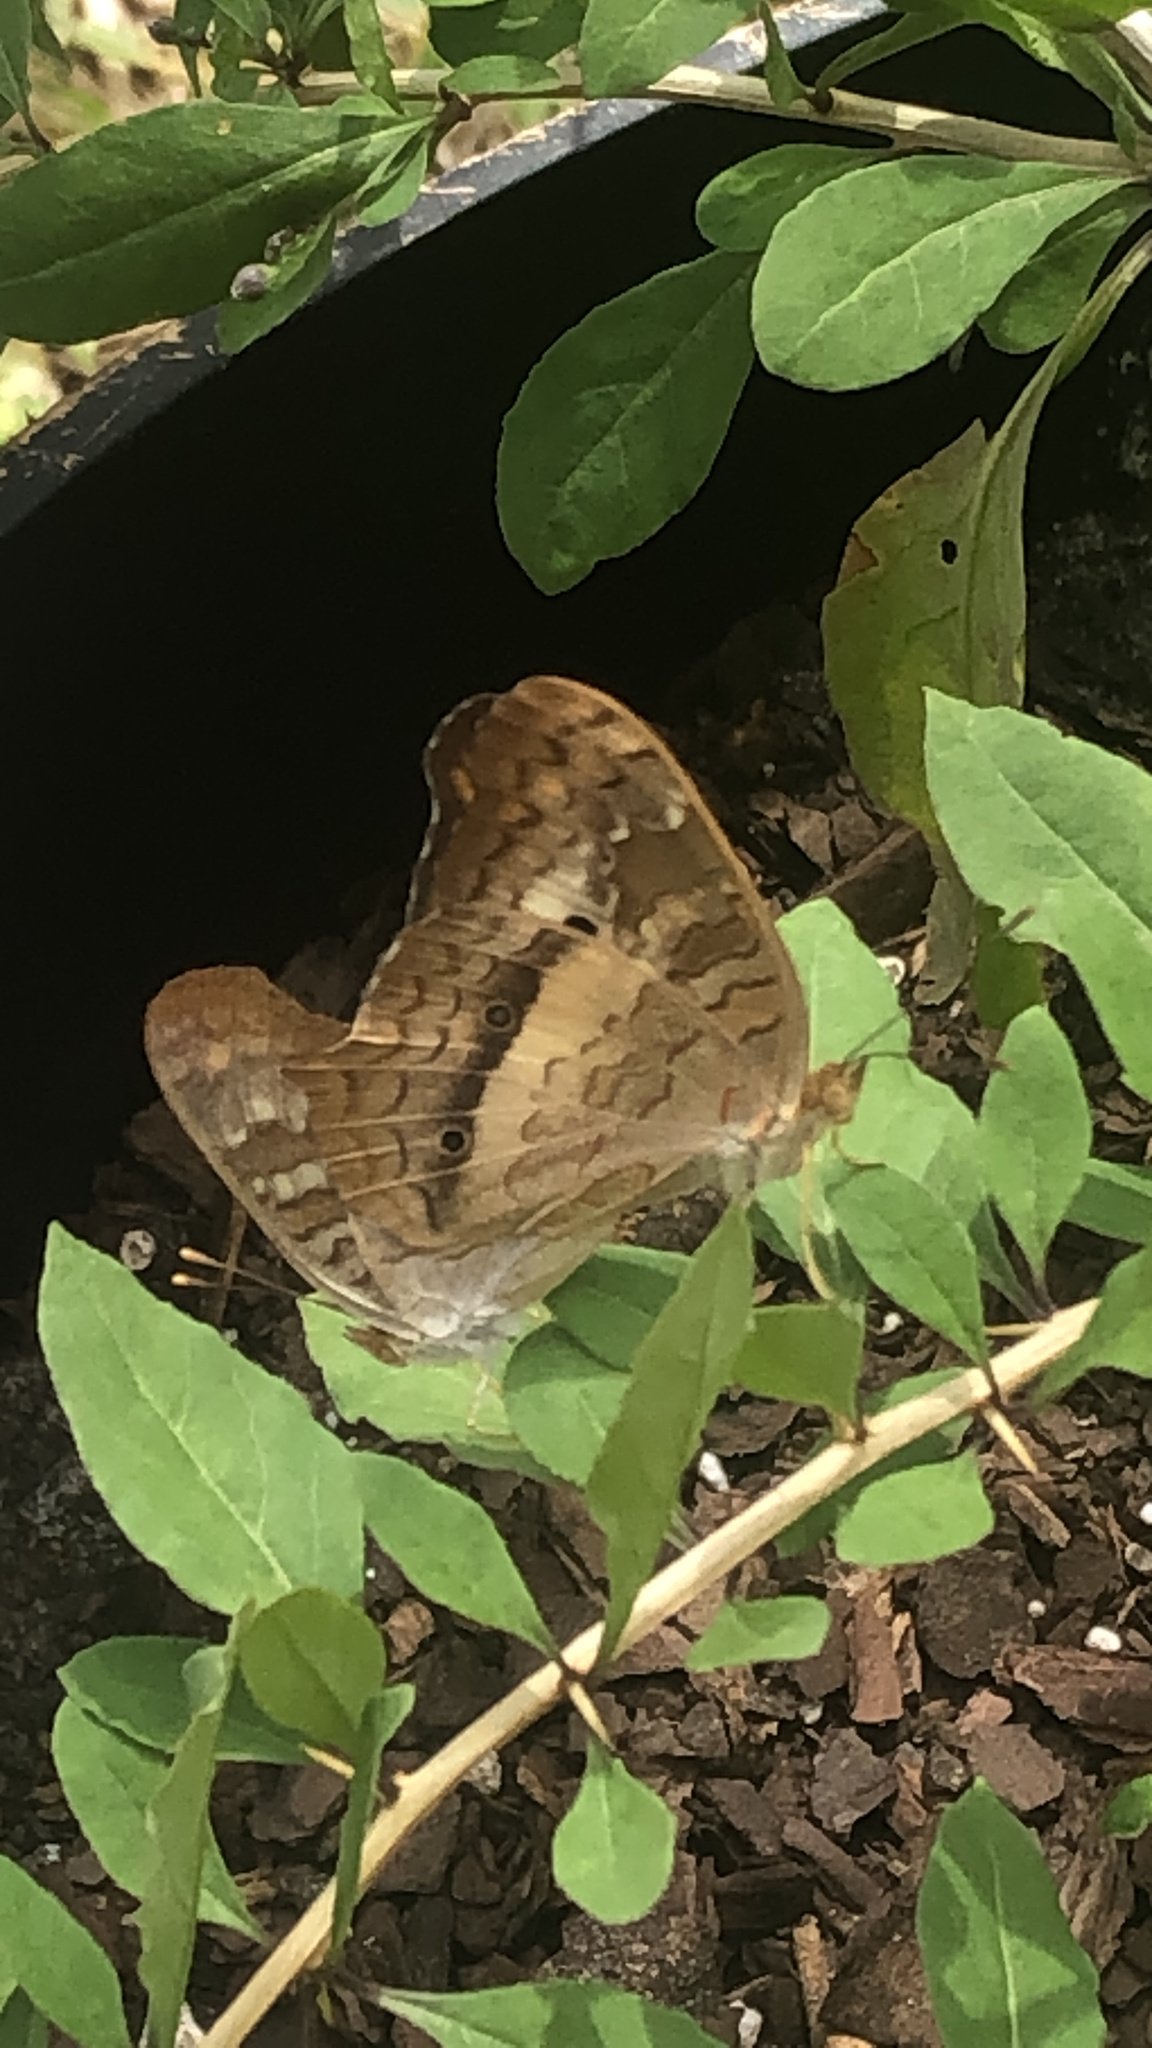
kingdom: Animalia
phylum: Arthropoda
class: Insecta
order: Lepidoptera
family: Nymphalidae
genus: Anartia
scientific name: Anartia jatrophae
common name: White peacock
